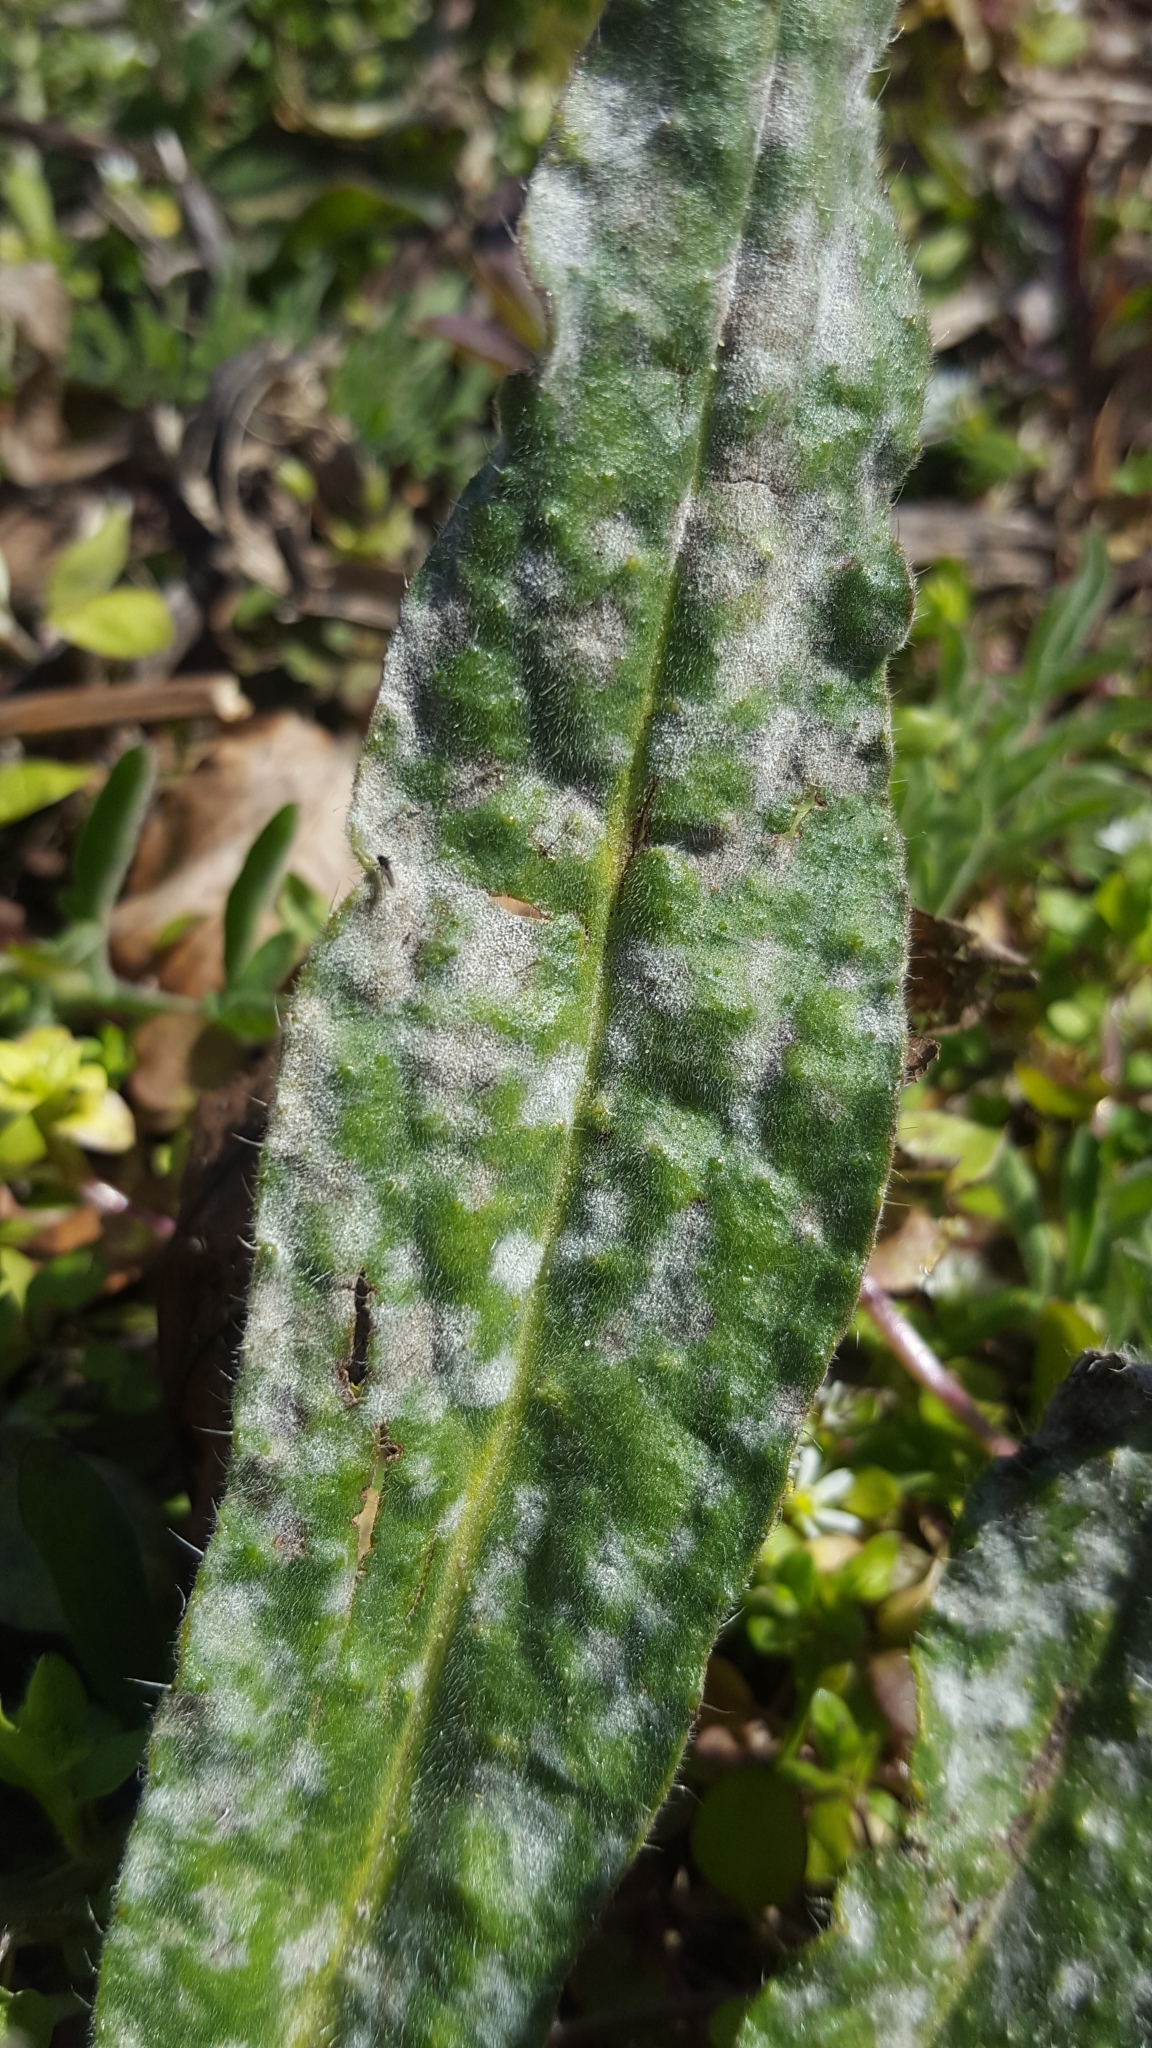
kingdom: Fungi
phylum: Ascomycota
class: Leotiomycetes
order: Helotiales
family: Erysiphaceae
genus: Golovinomyces
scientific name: Golovinomyces asperifolii
